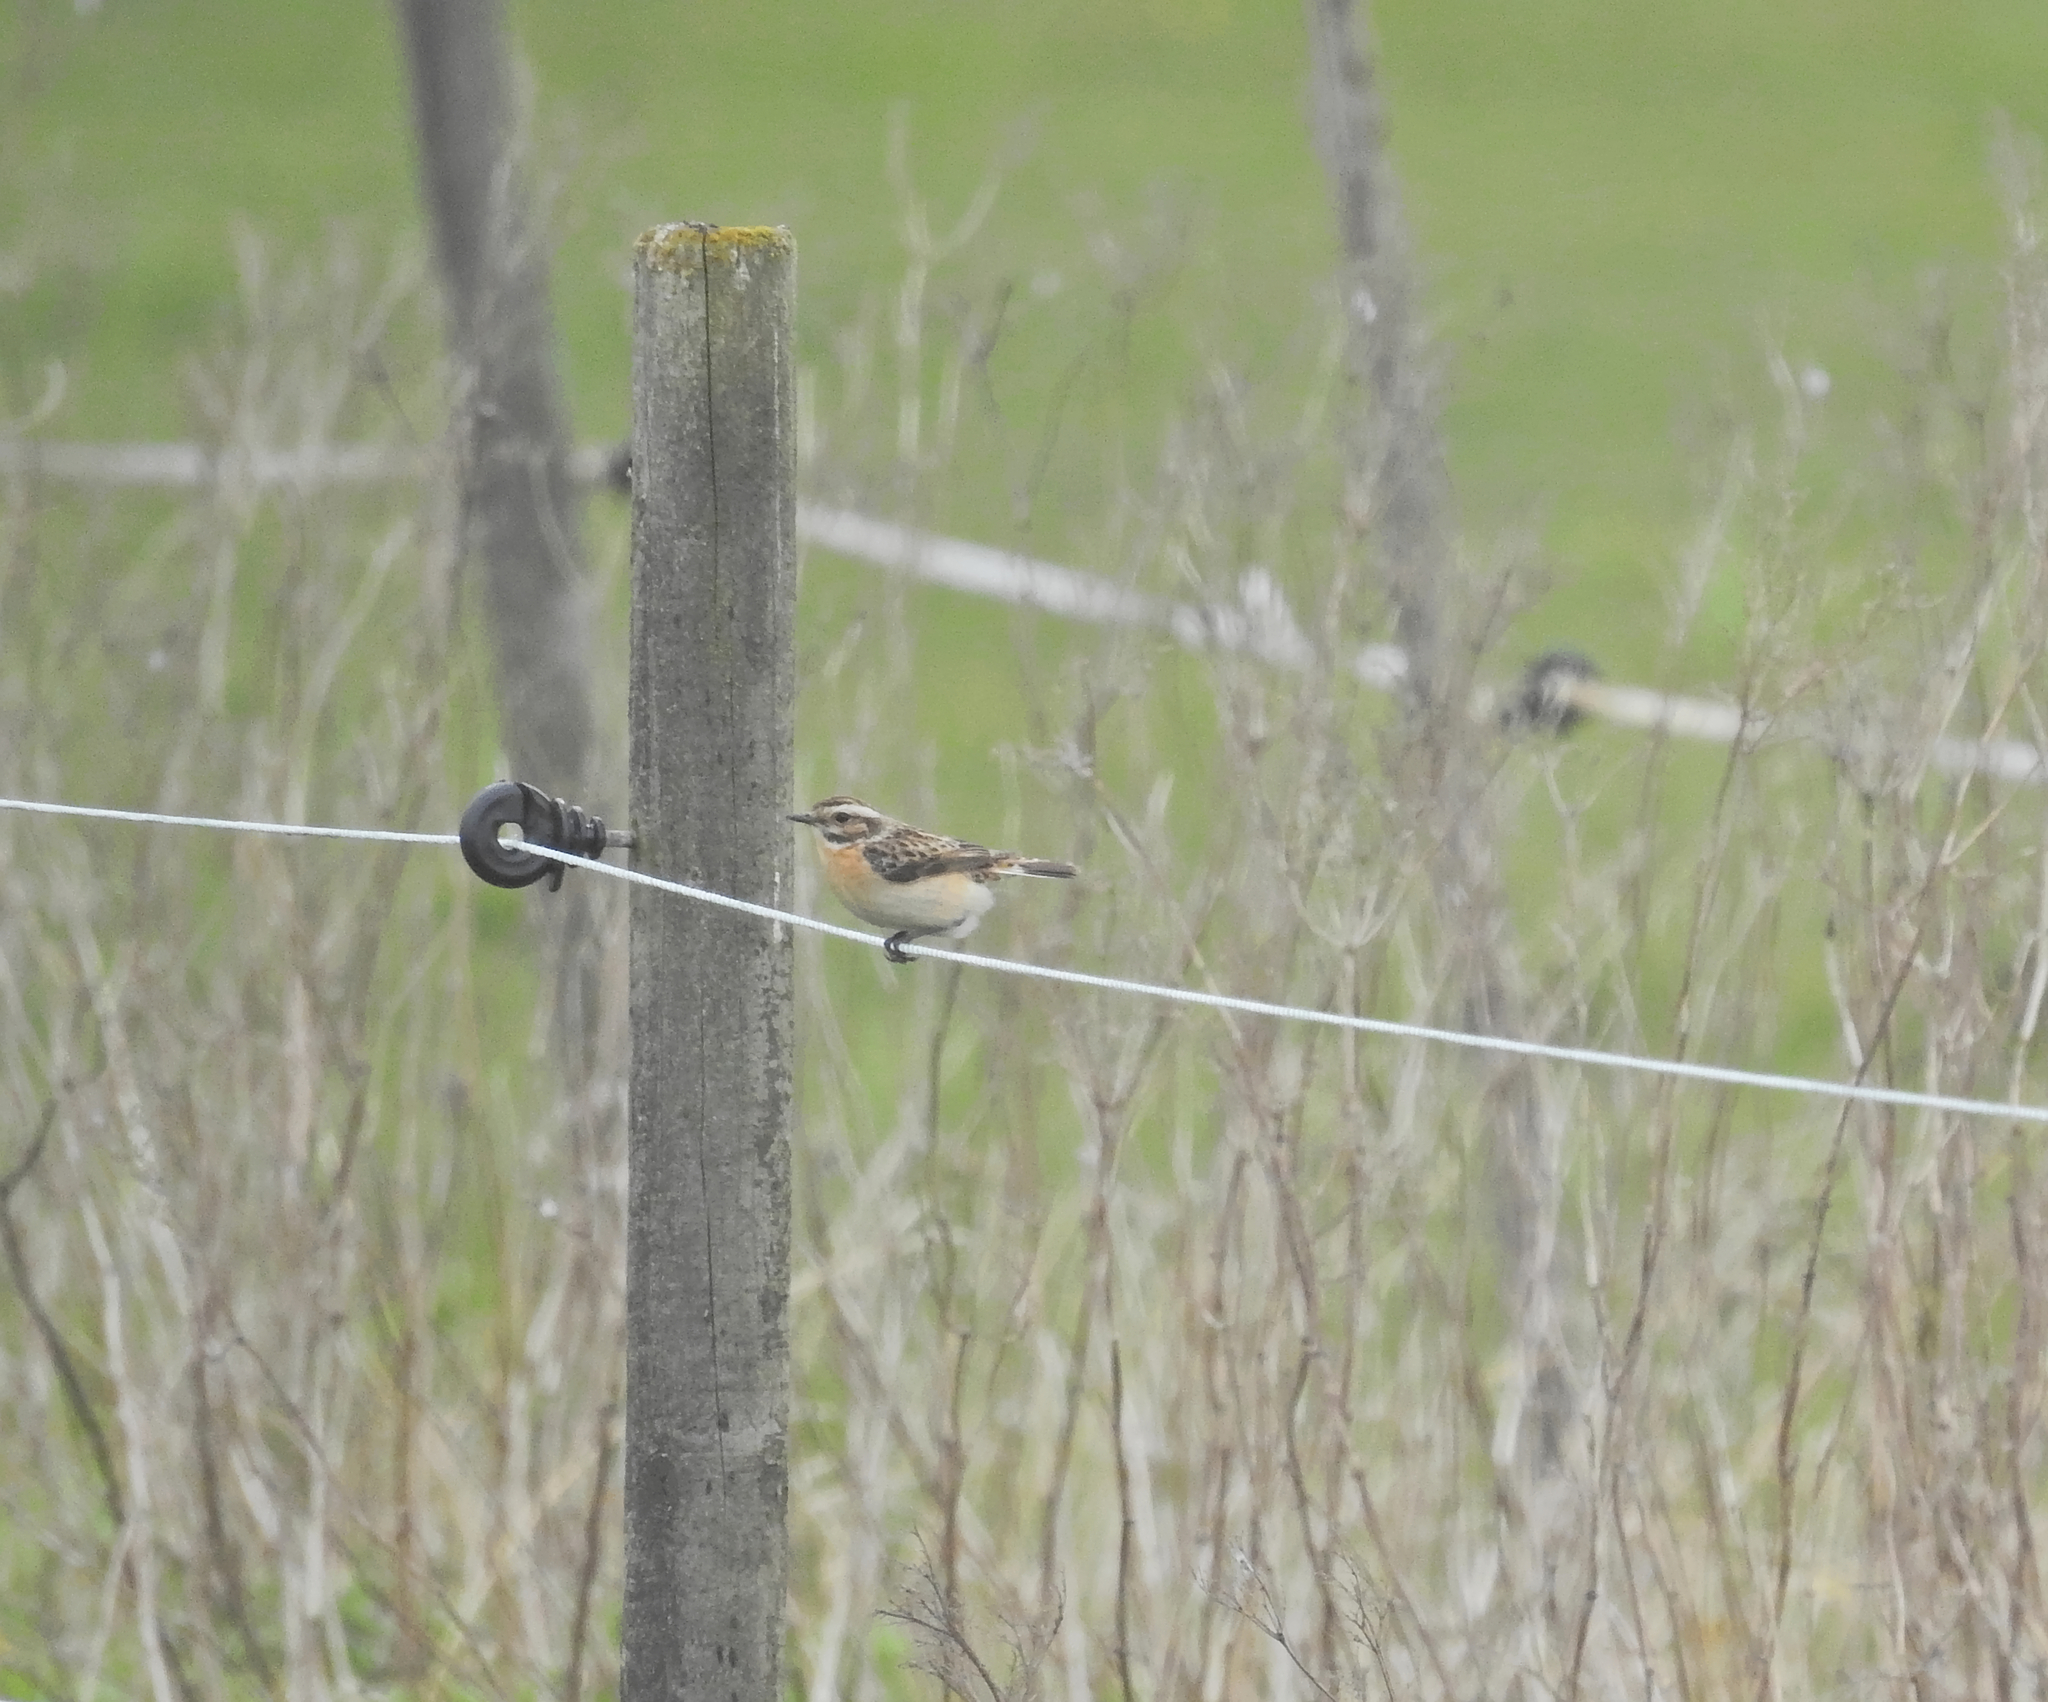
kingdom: Animalia
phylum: Chordata
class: Aves
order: Passeriformes
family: Muscicapidae
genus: Saxicola
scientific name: Saxicola rubetra
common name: Whinchat
